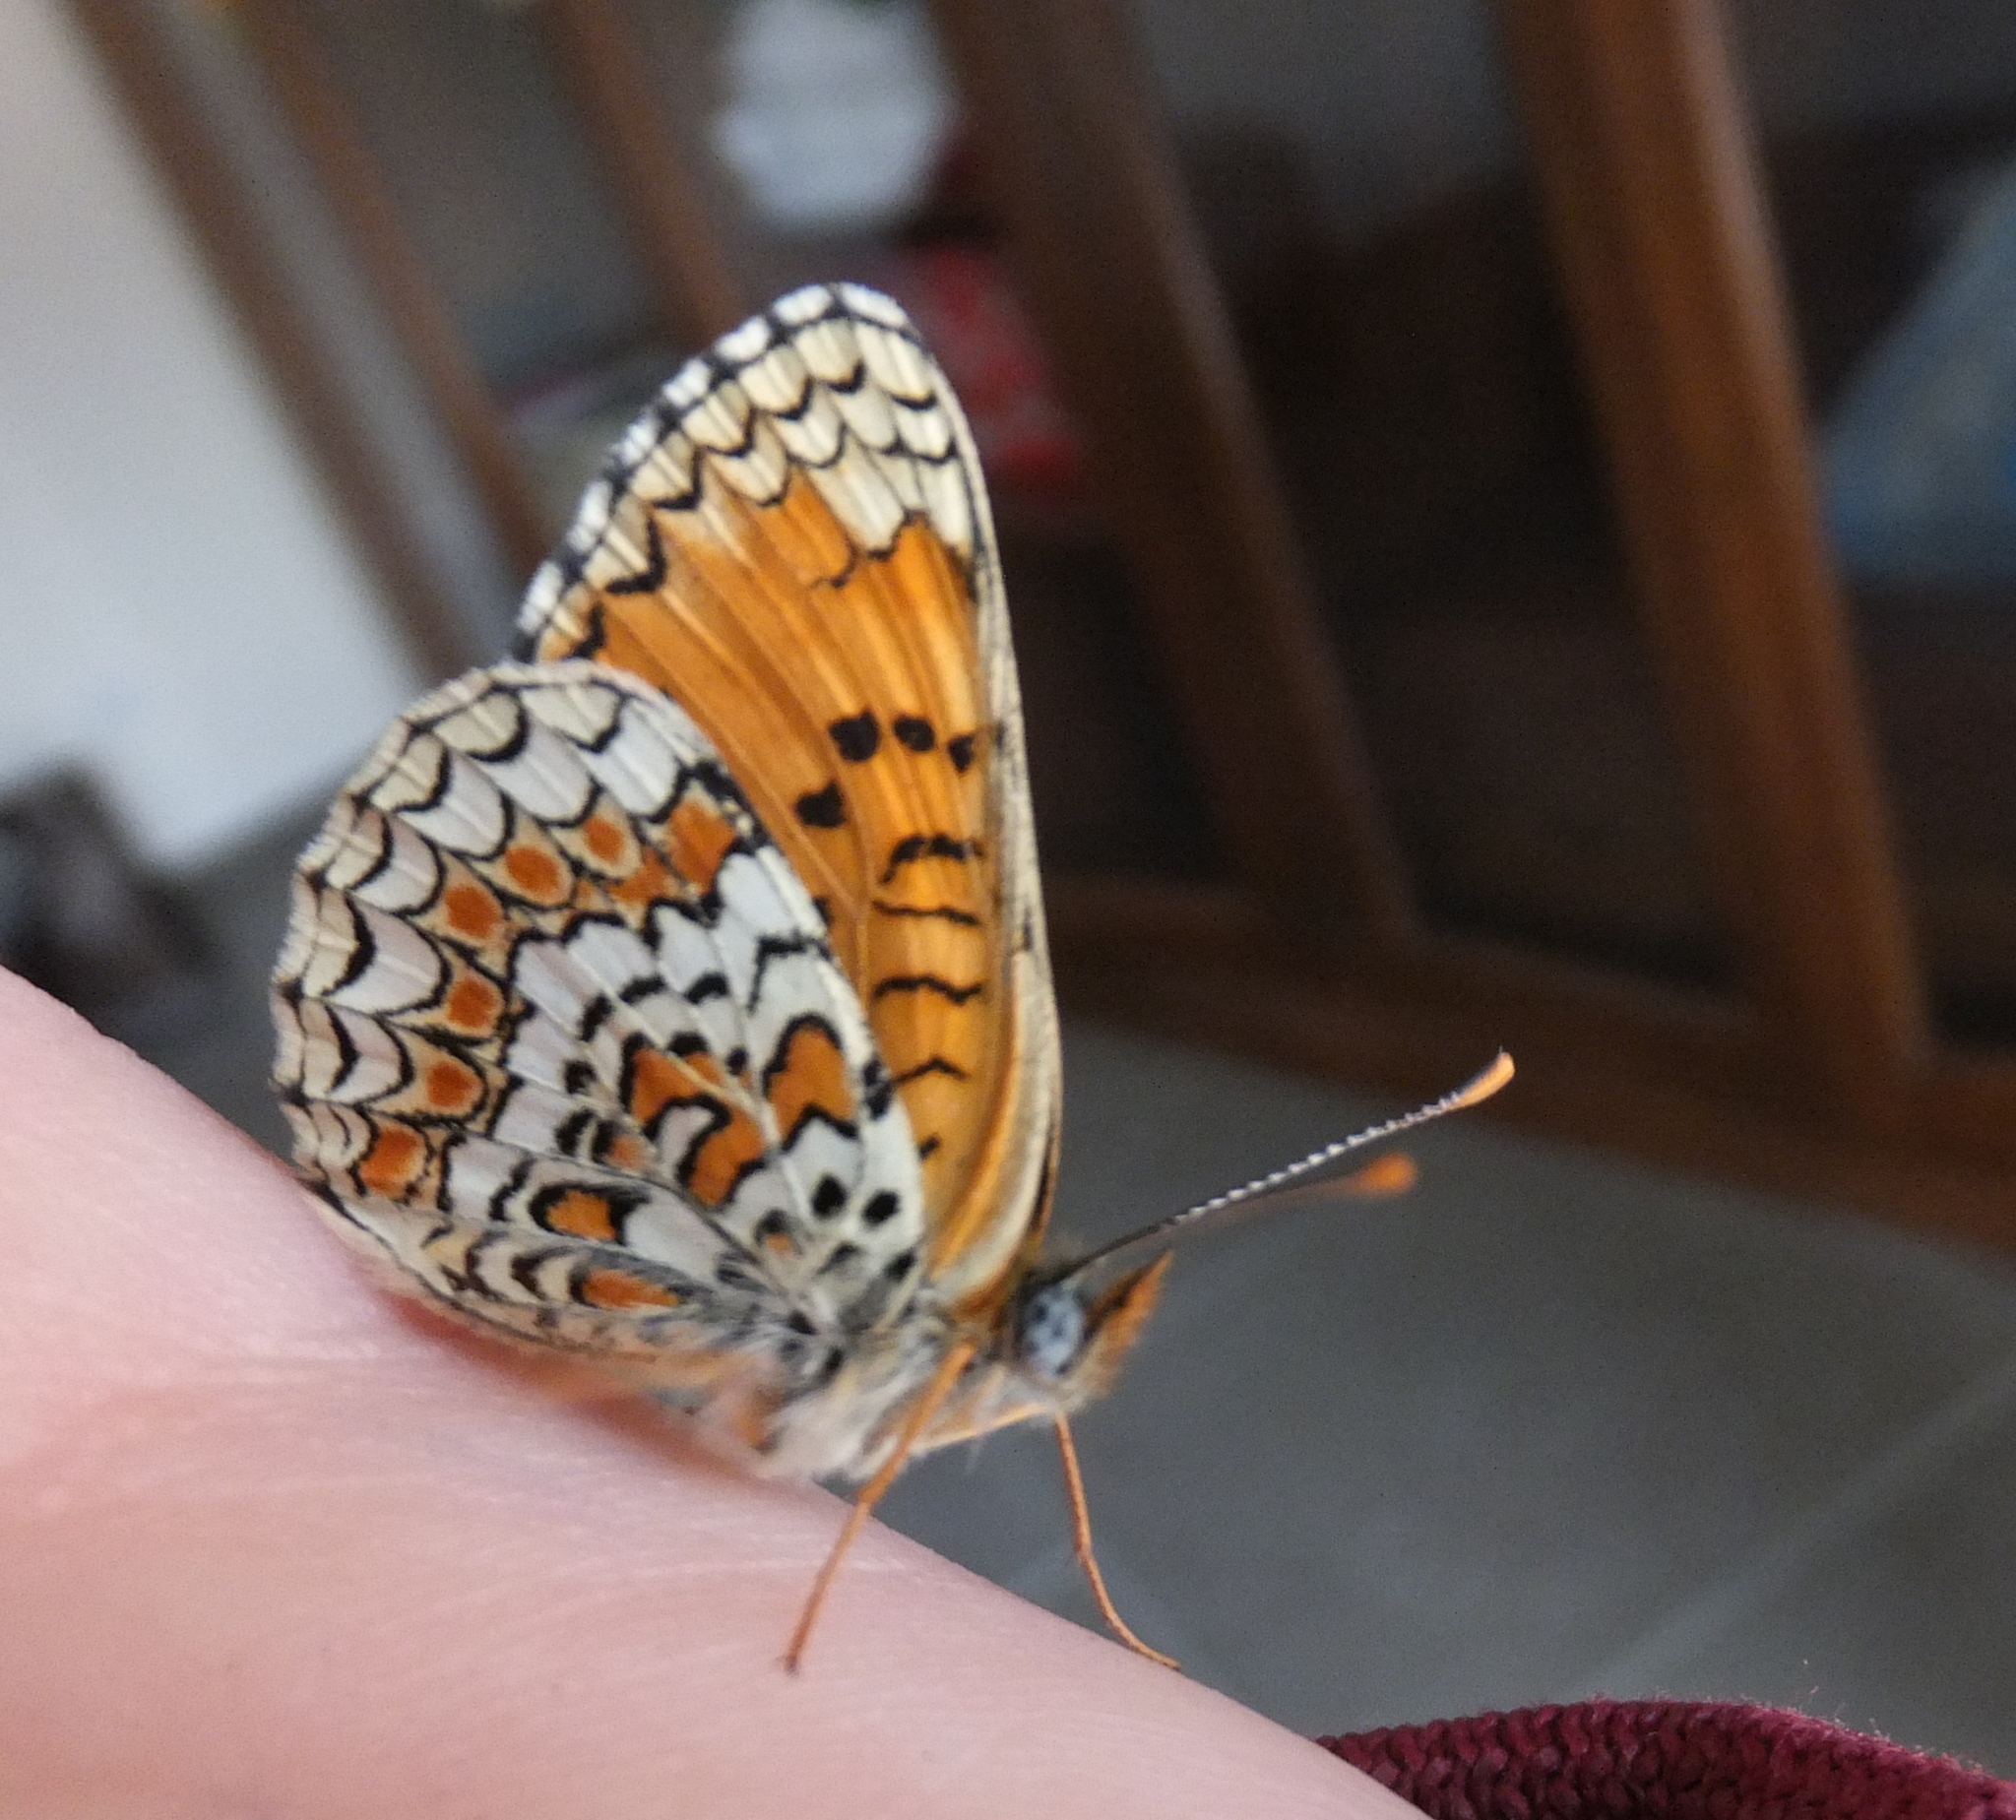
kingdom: Animalia
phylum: Arthropoda
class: Insecta
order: Lepidoptera
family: Nymphalidae
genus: Melitaea
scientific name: Melitaea phoebe
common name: Knapweed fritillary
